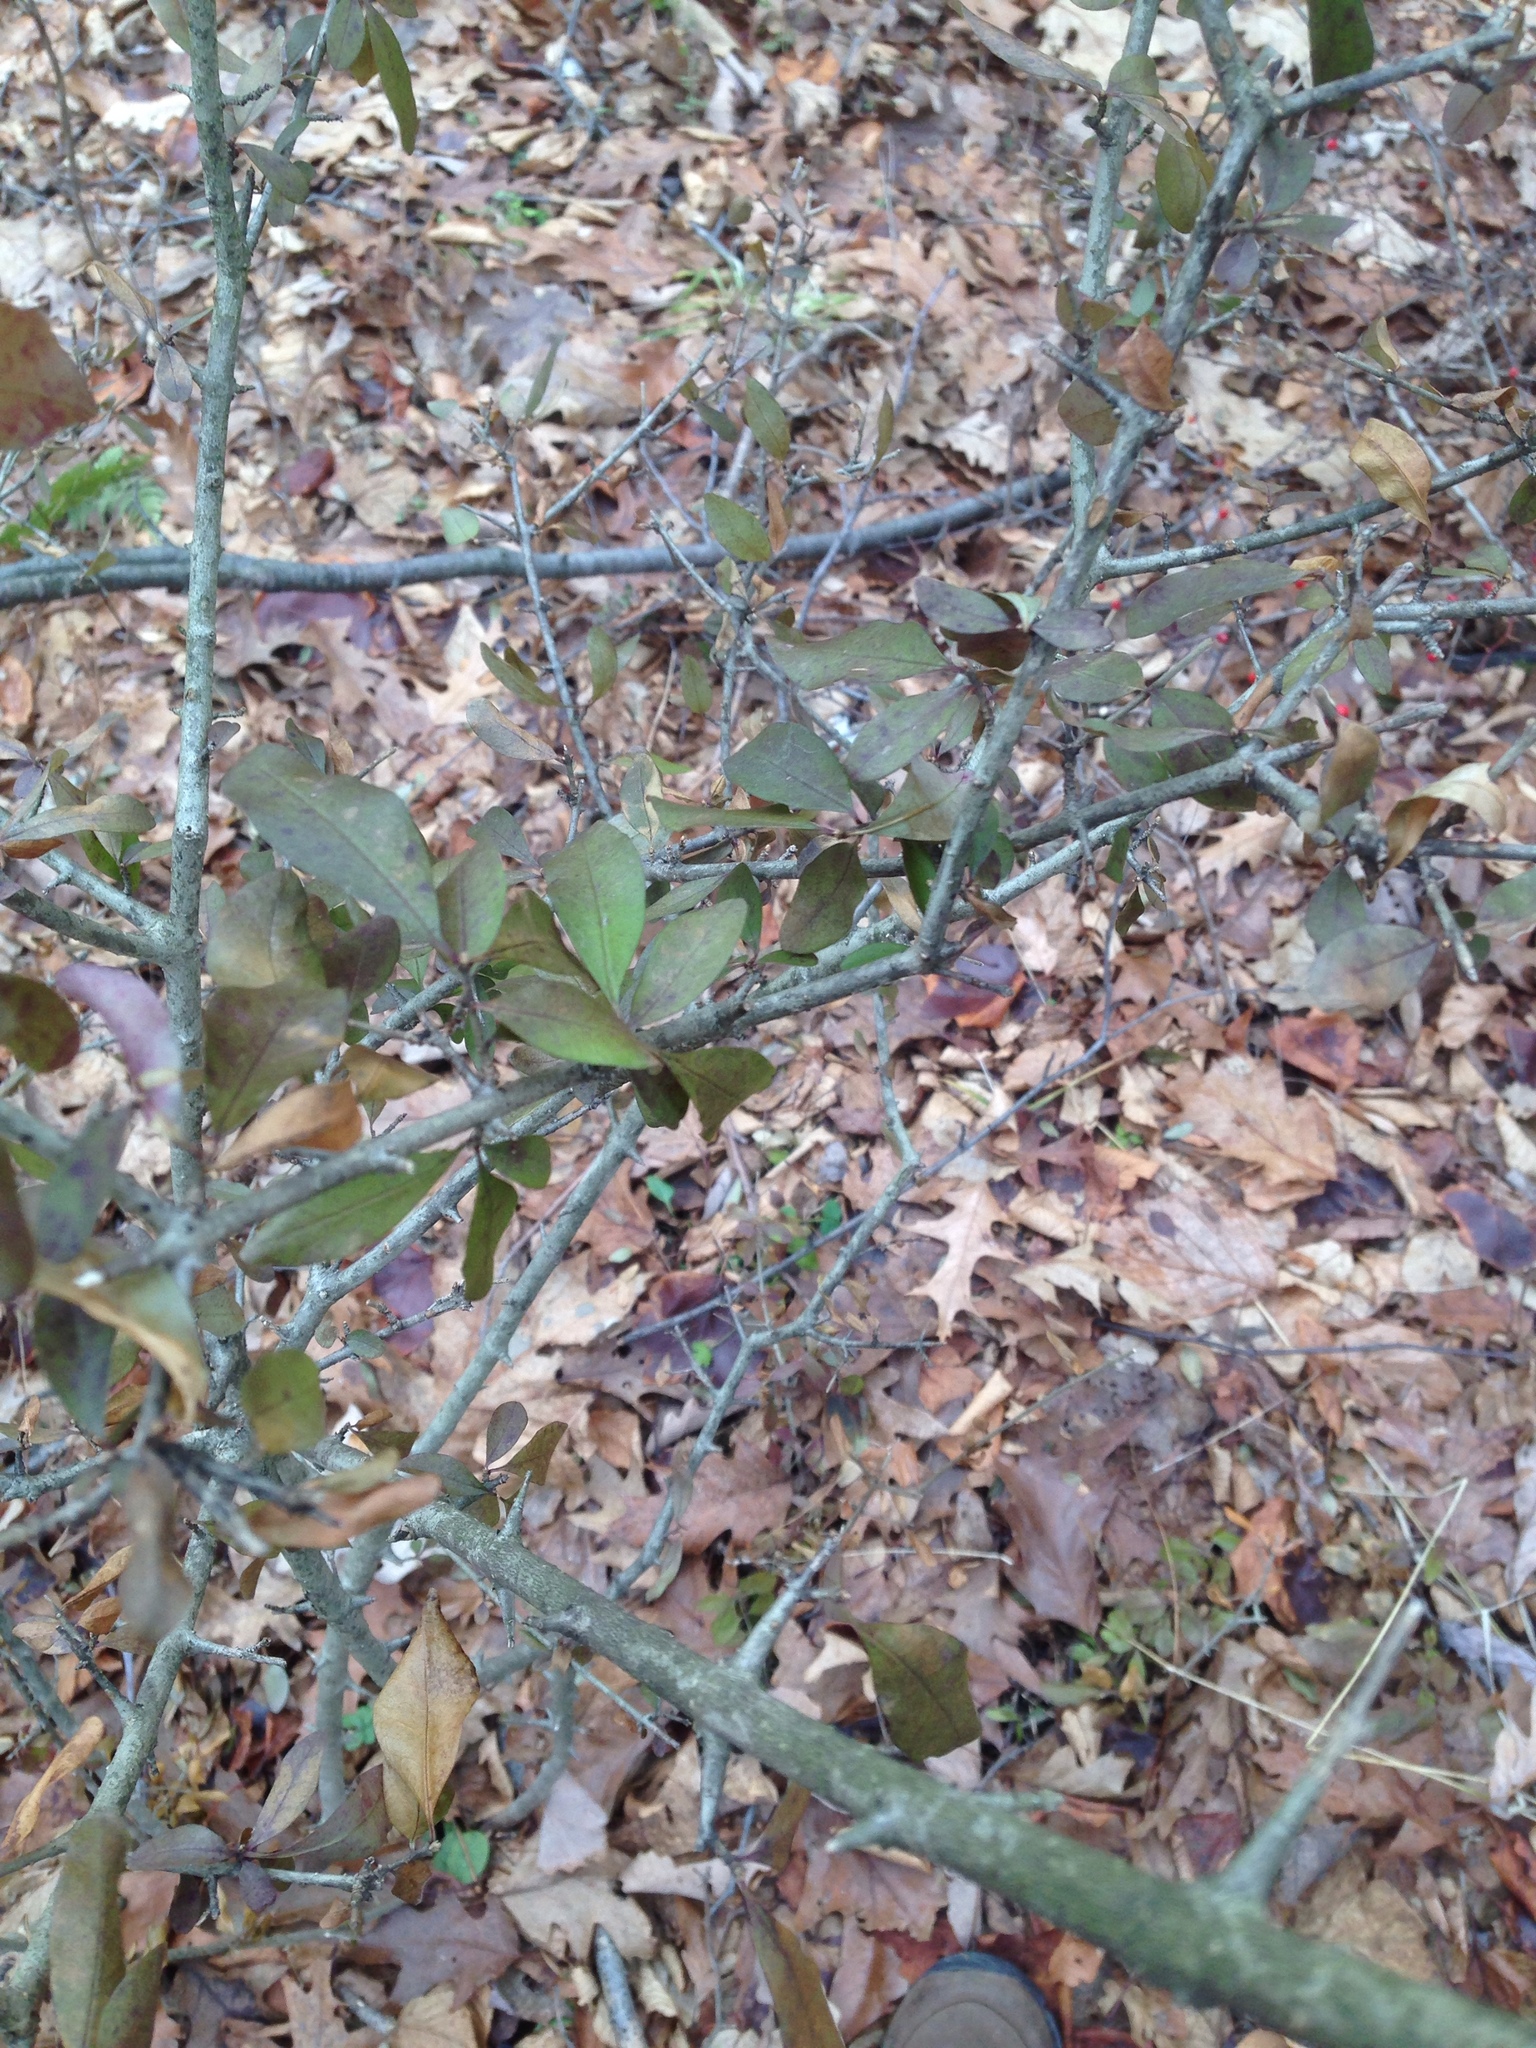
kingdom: Plantae
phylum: Tracheophyta
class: Magnoliopsida
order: Lamiales
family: Oleaceae
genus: Ligustrum
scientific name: Ligustrum obtusifolium
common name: Border privet
